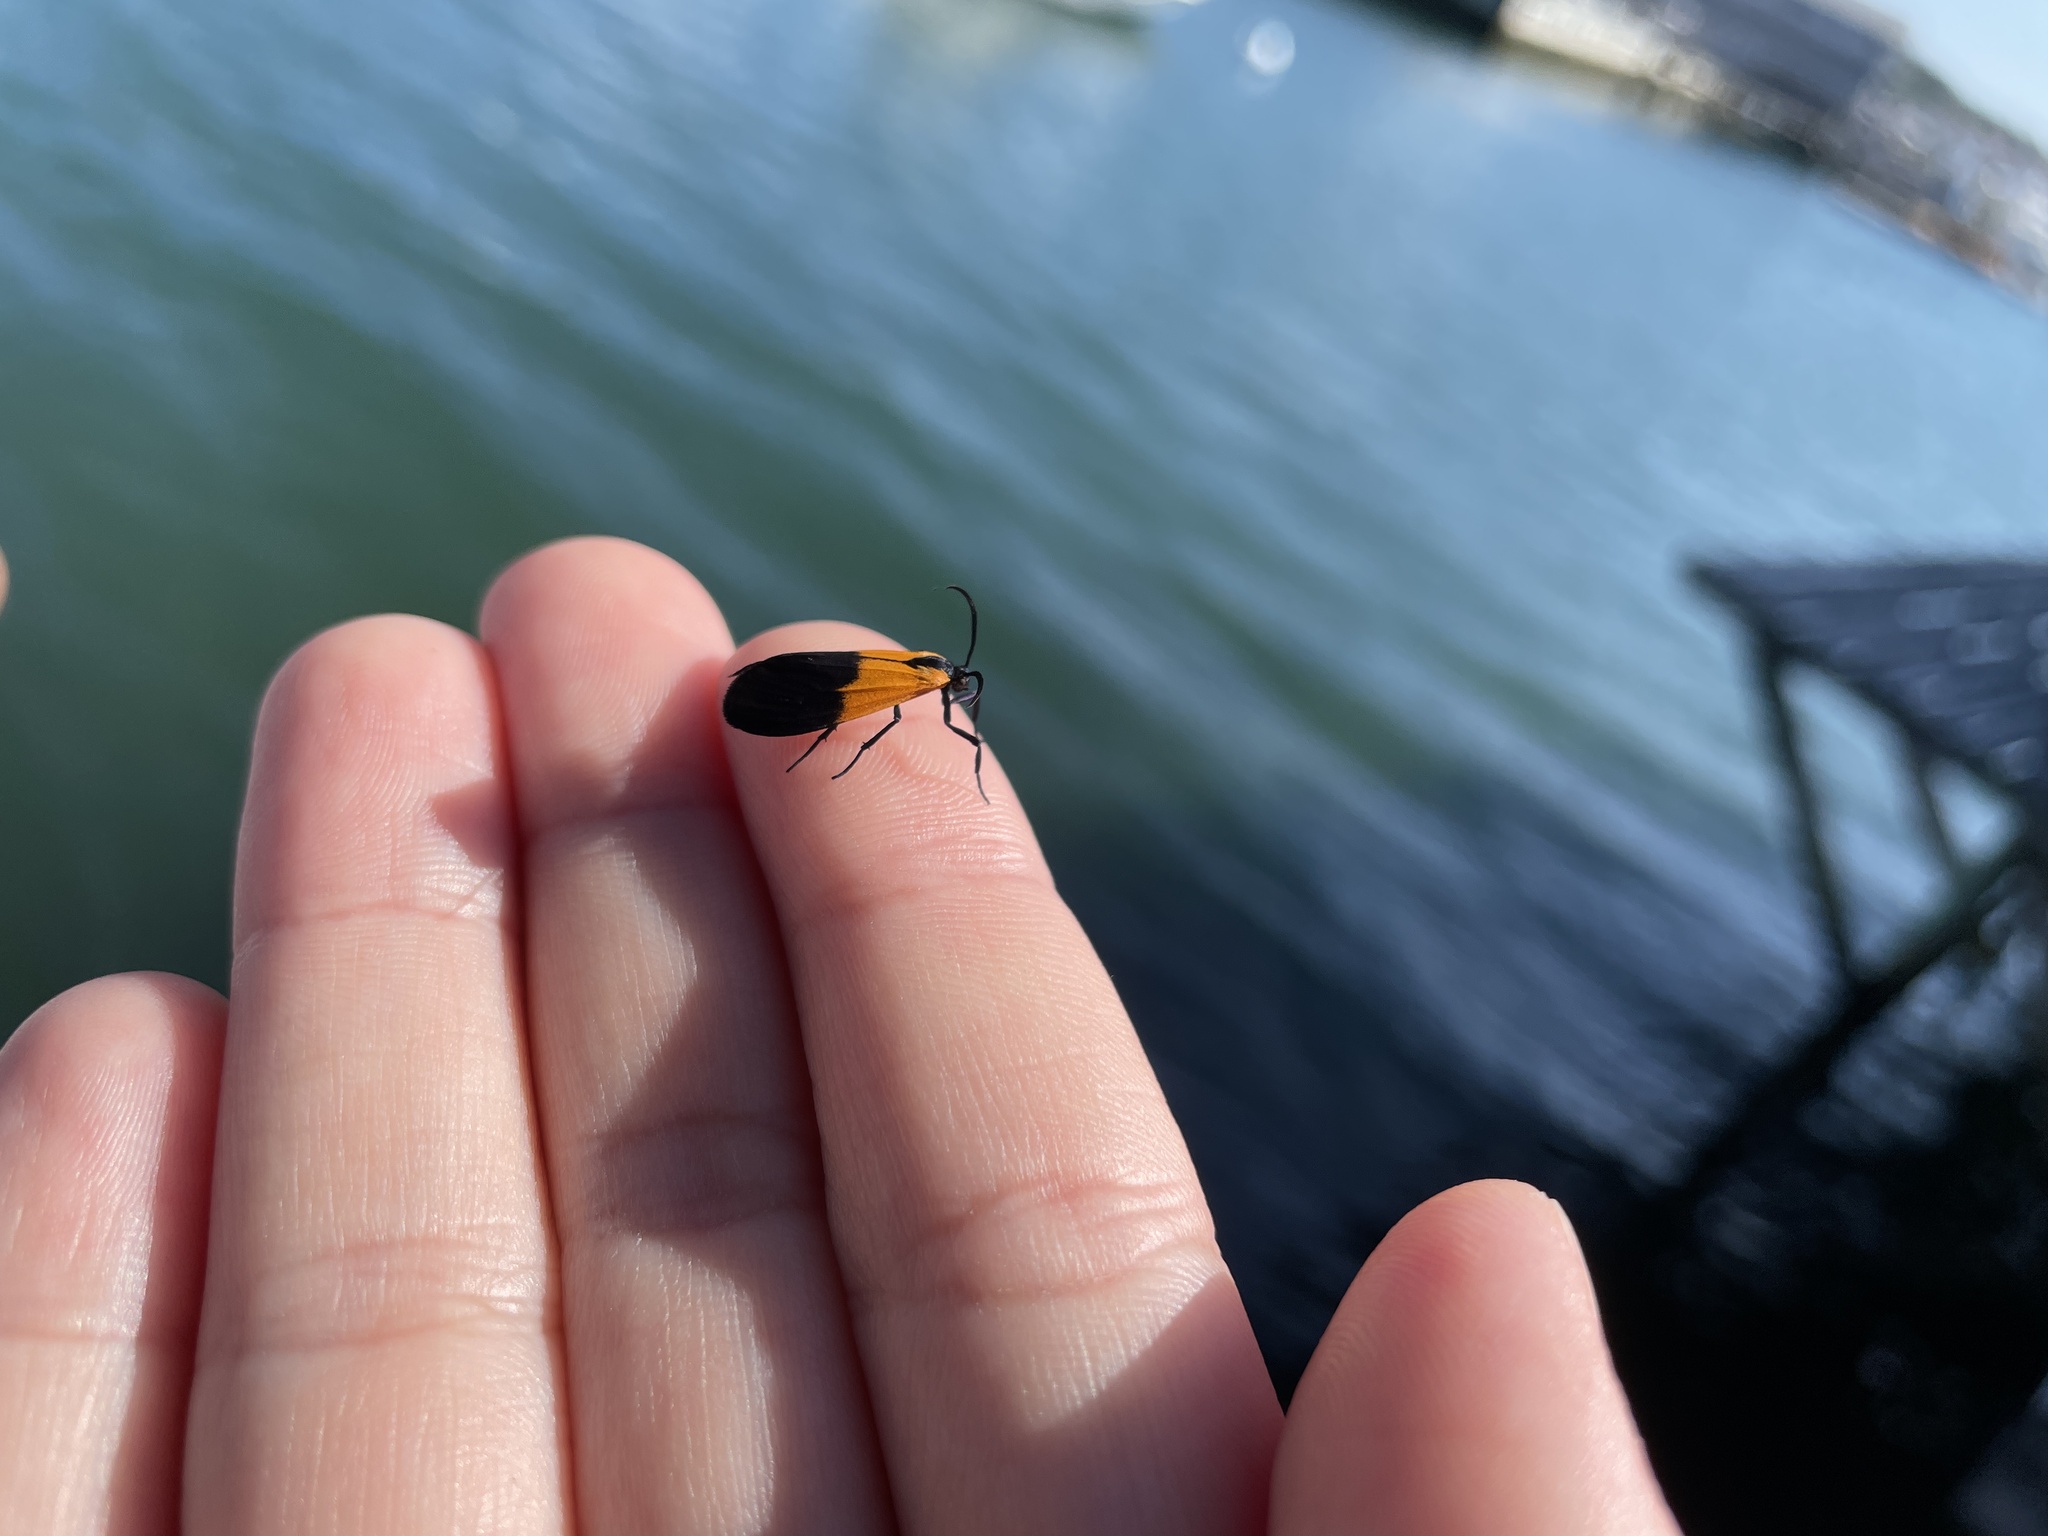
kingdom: Animalia
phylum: Arthropoda
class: Insecta
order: Lepidoptera
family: Erebidae
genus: Lycomorpha
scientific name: Lycomorpha pholus
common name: Black-and-yellow lichen moth
